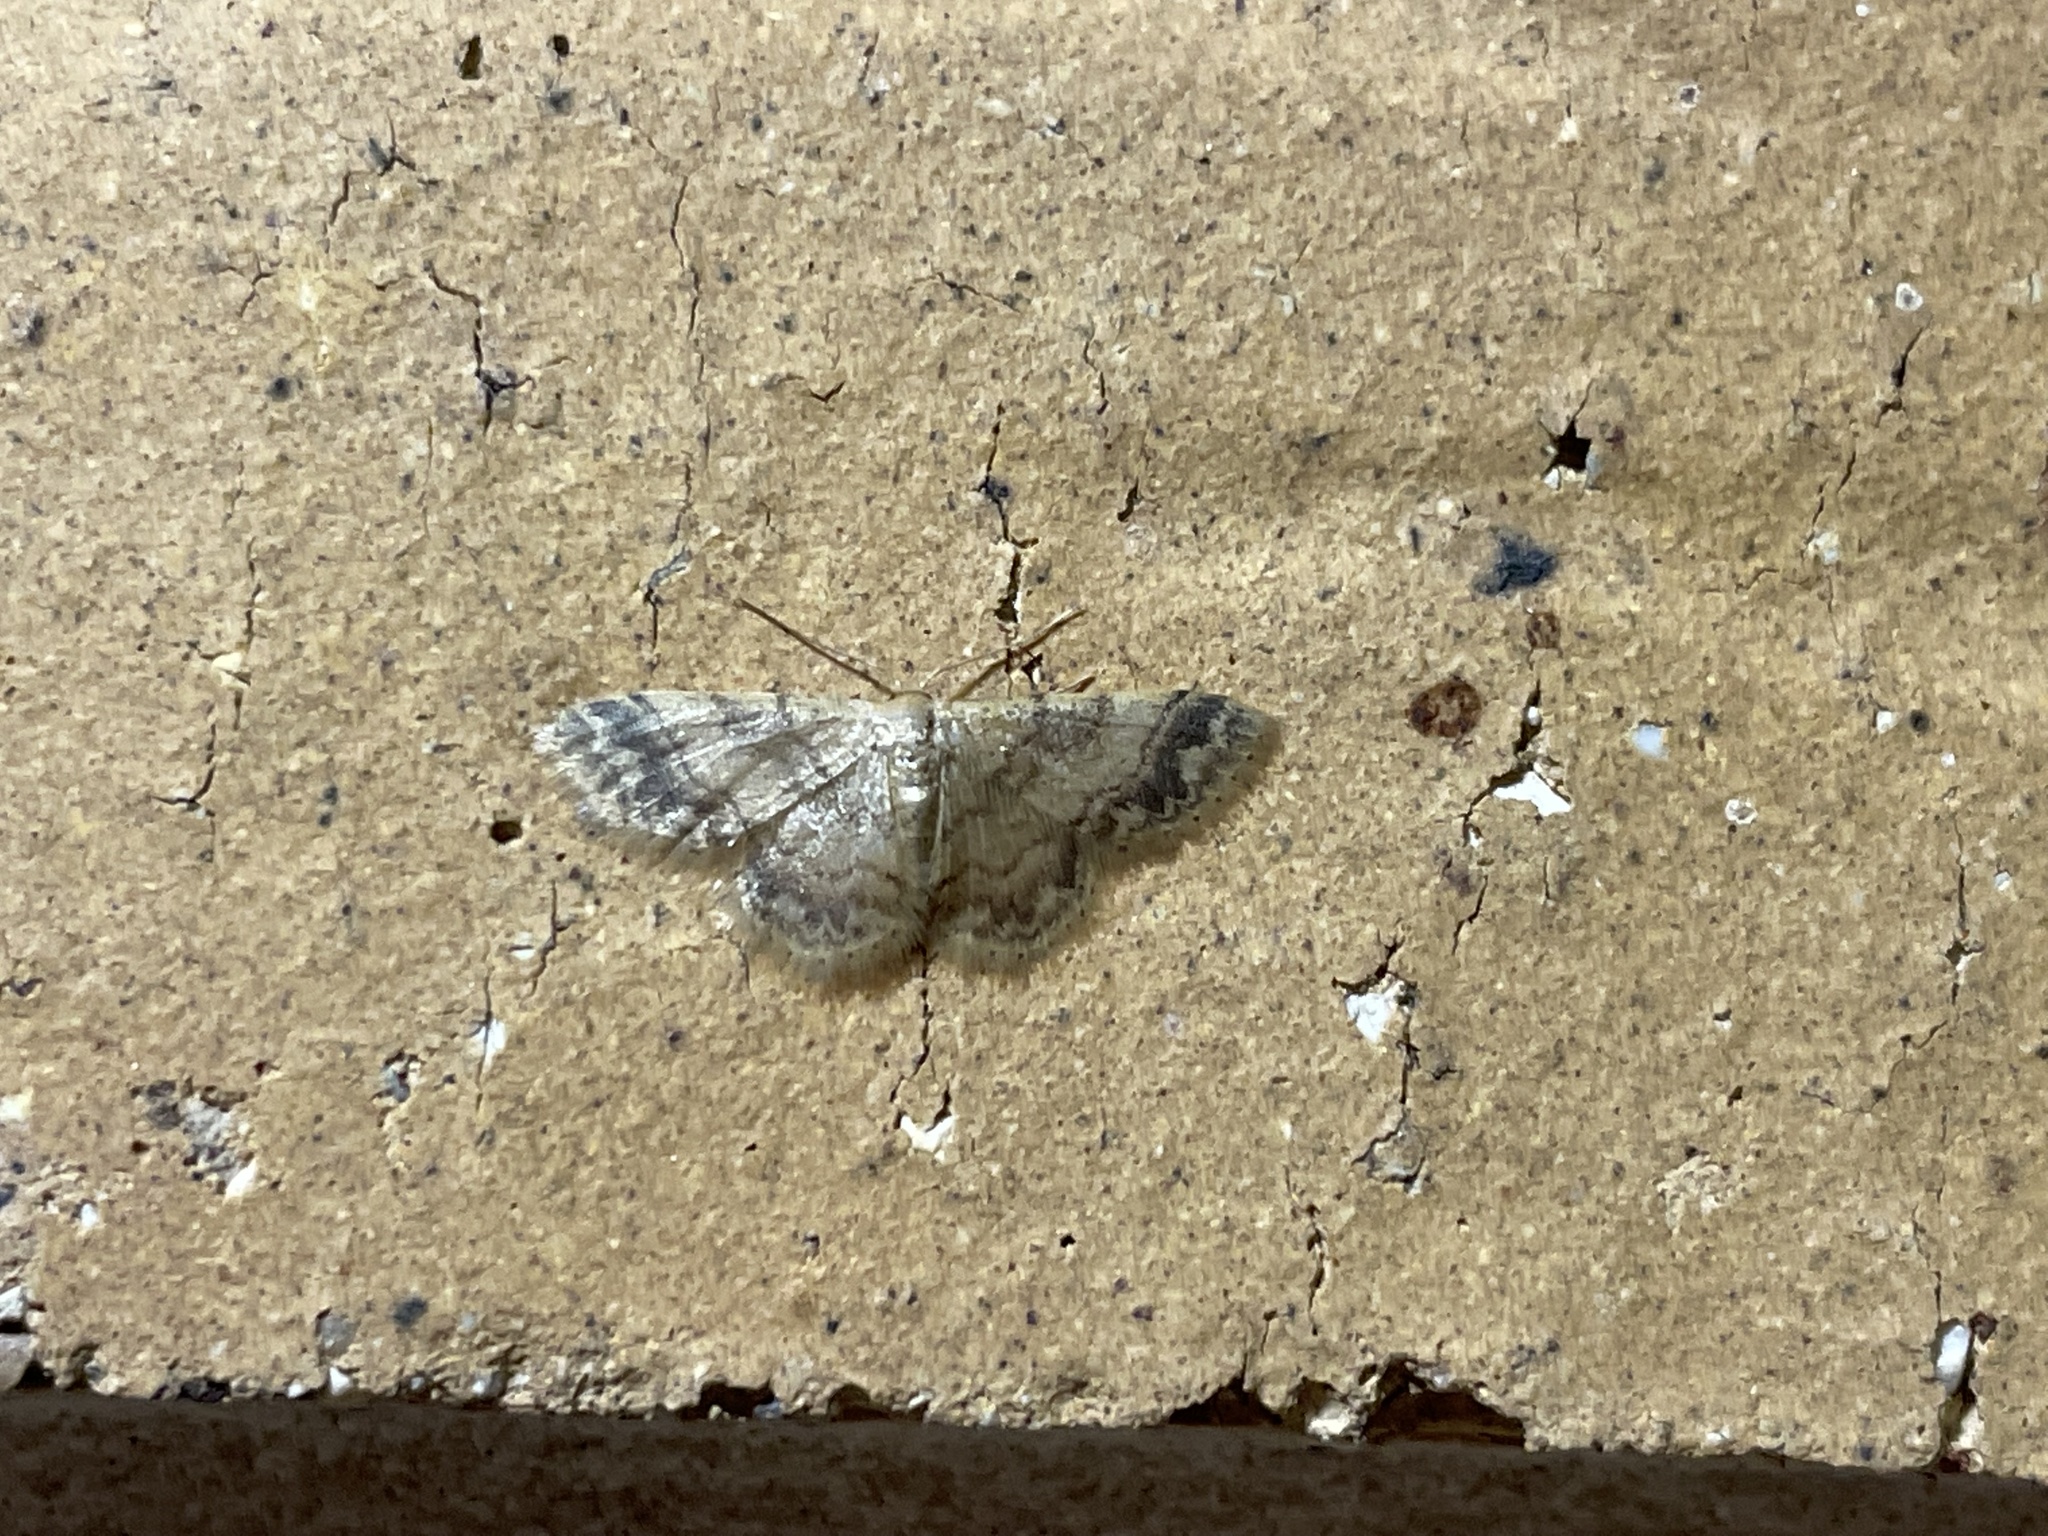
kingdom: Animalia
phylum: Arthropoda
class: Insecta
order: Lepidoptera
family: Geometridae
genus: Idaea
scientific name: Idaea pilosata
